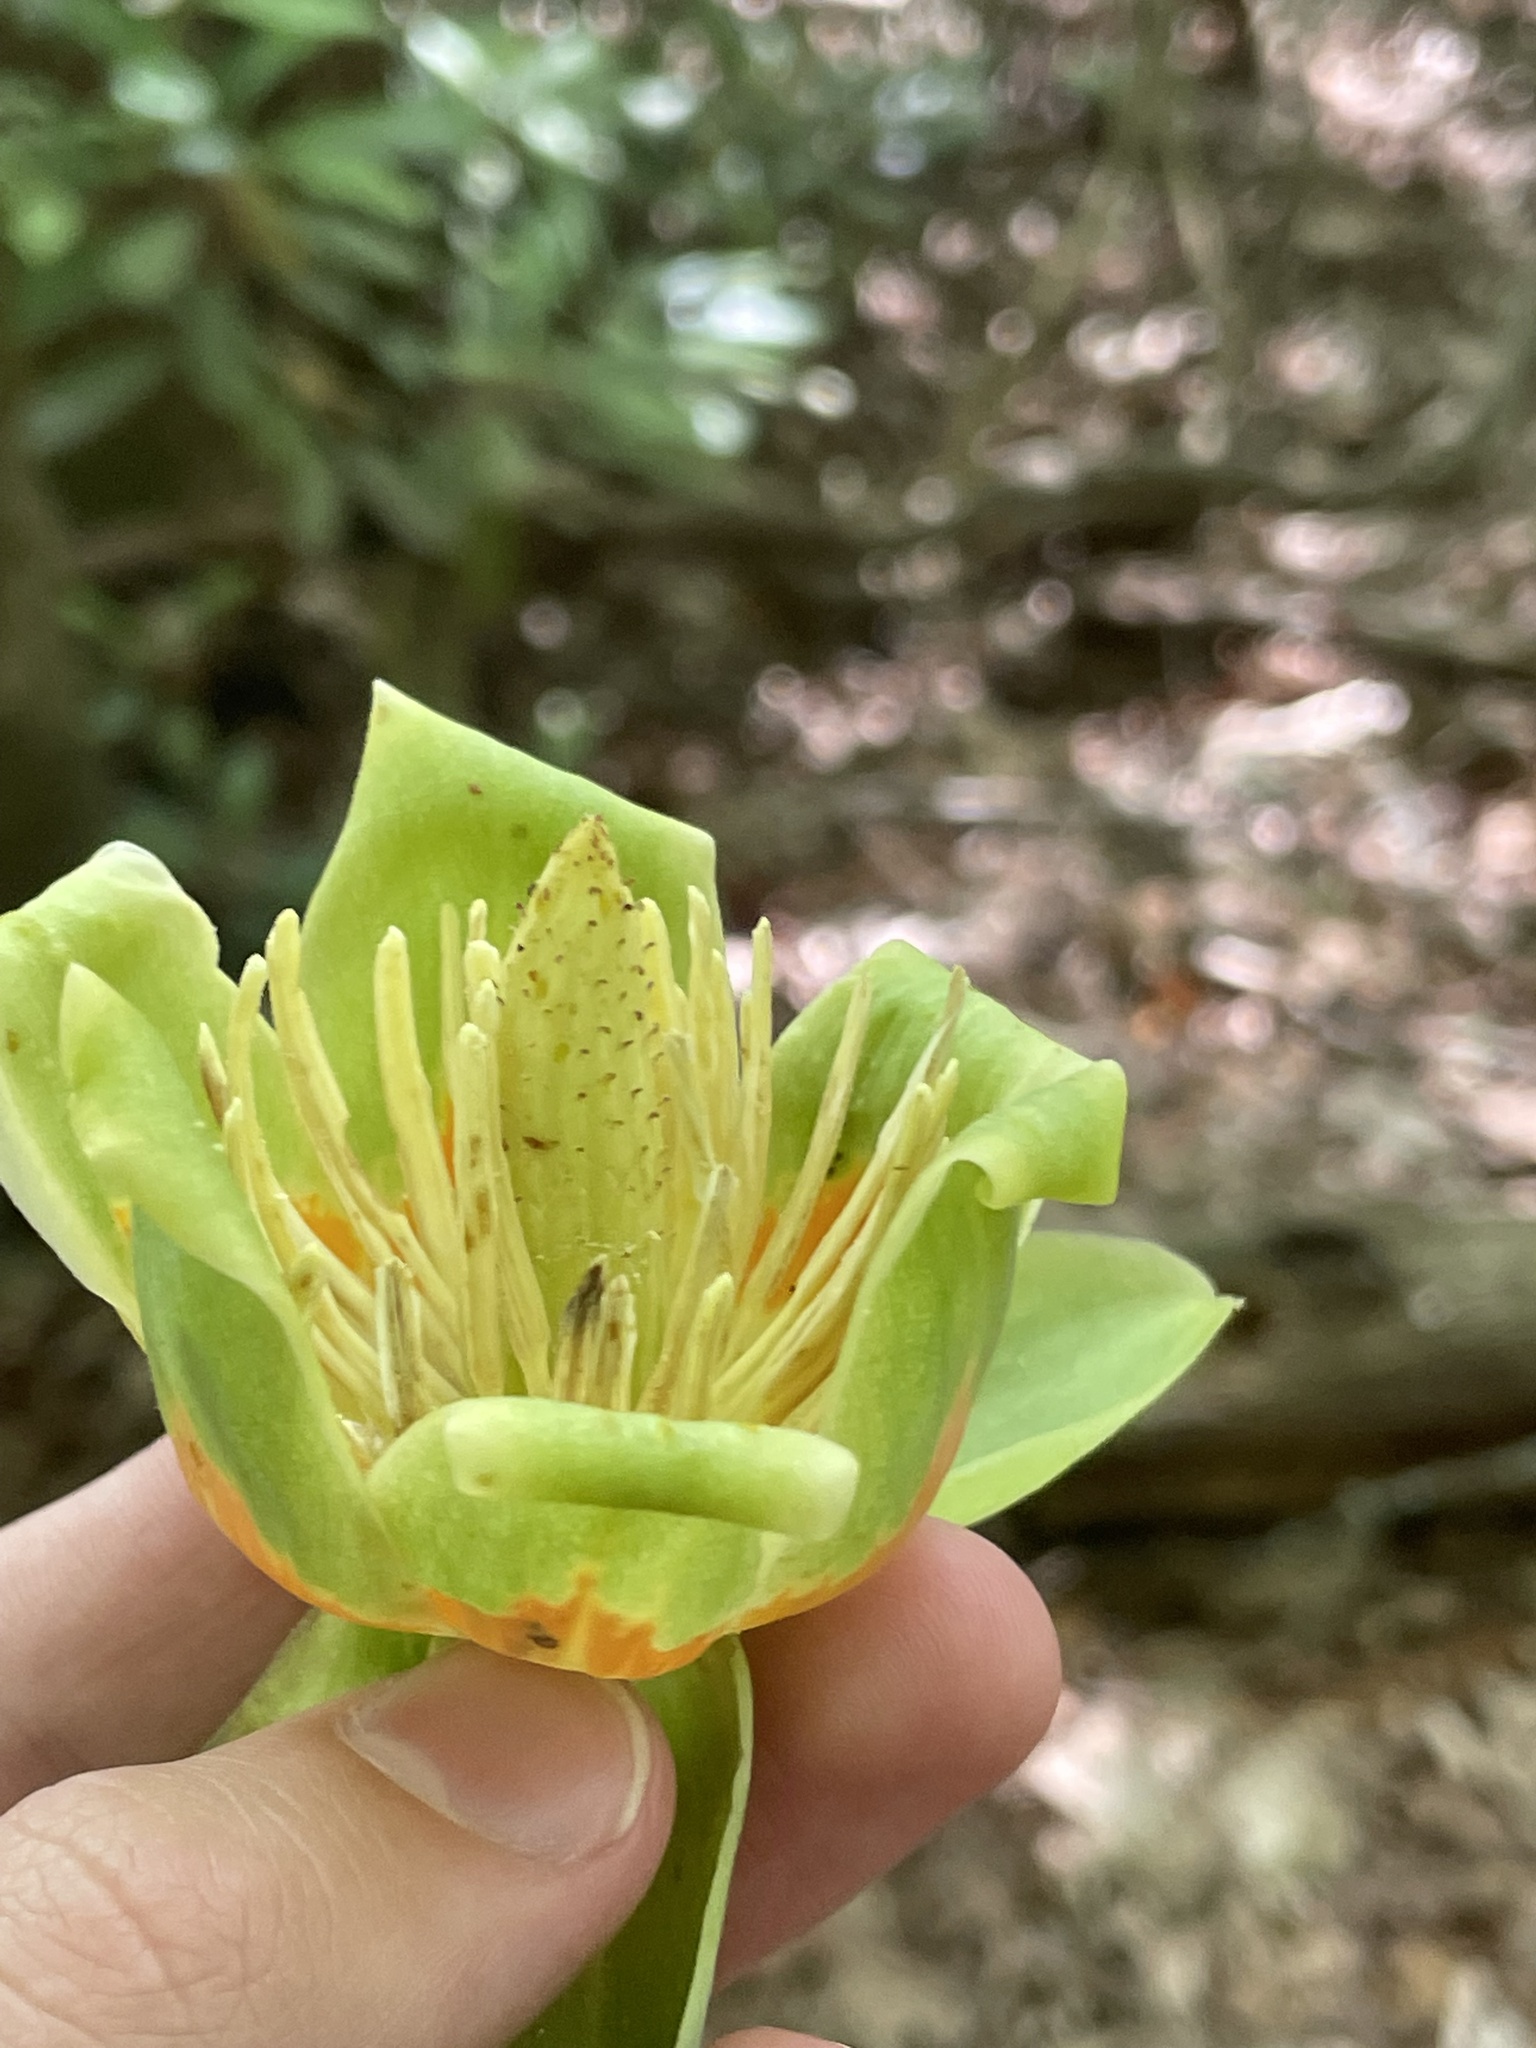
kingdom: Plantae
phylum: Tracheophyta
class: Magnoliopsida
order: Magnoliales
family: Magnoliaceae
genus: Liriodendron
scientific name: Liriodendron tulipifera
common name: Tulip tree
